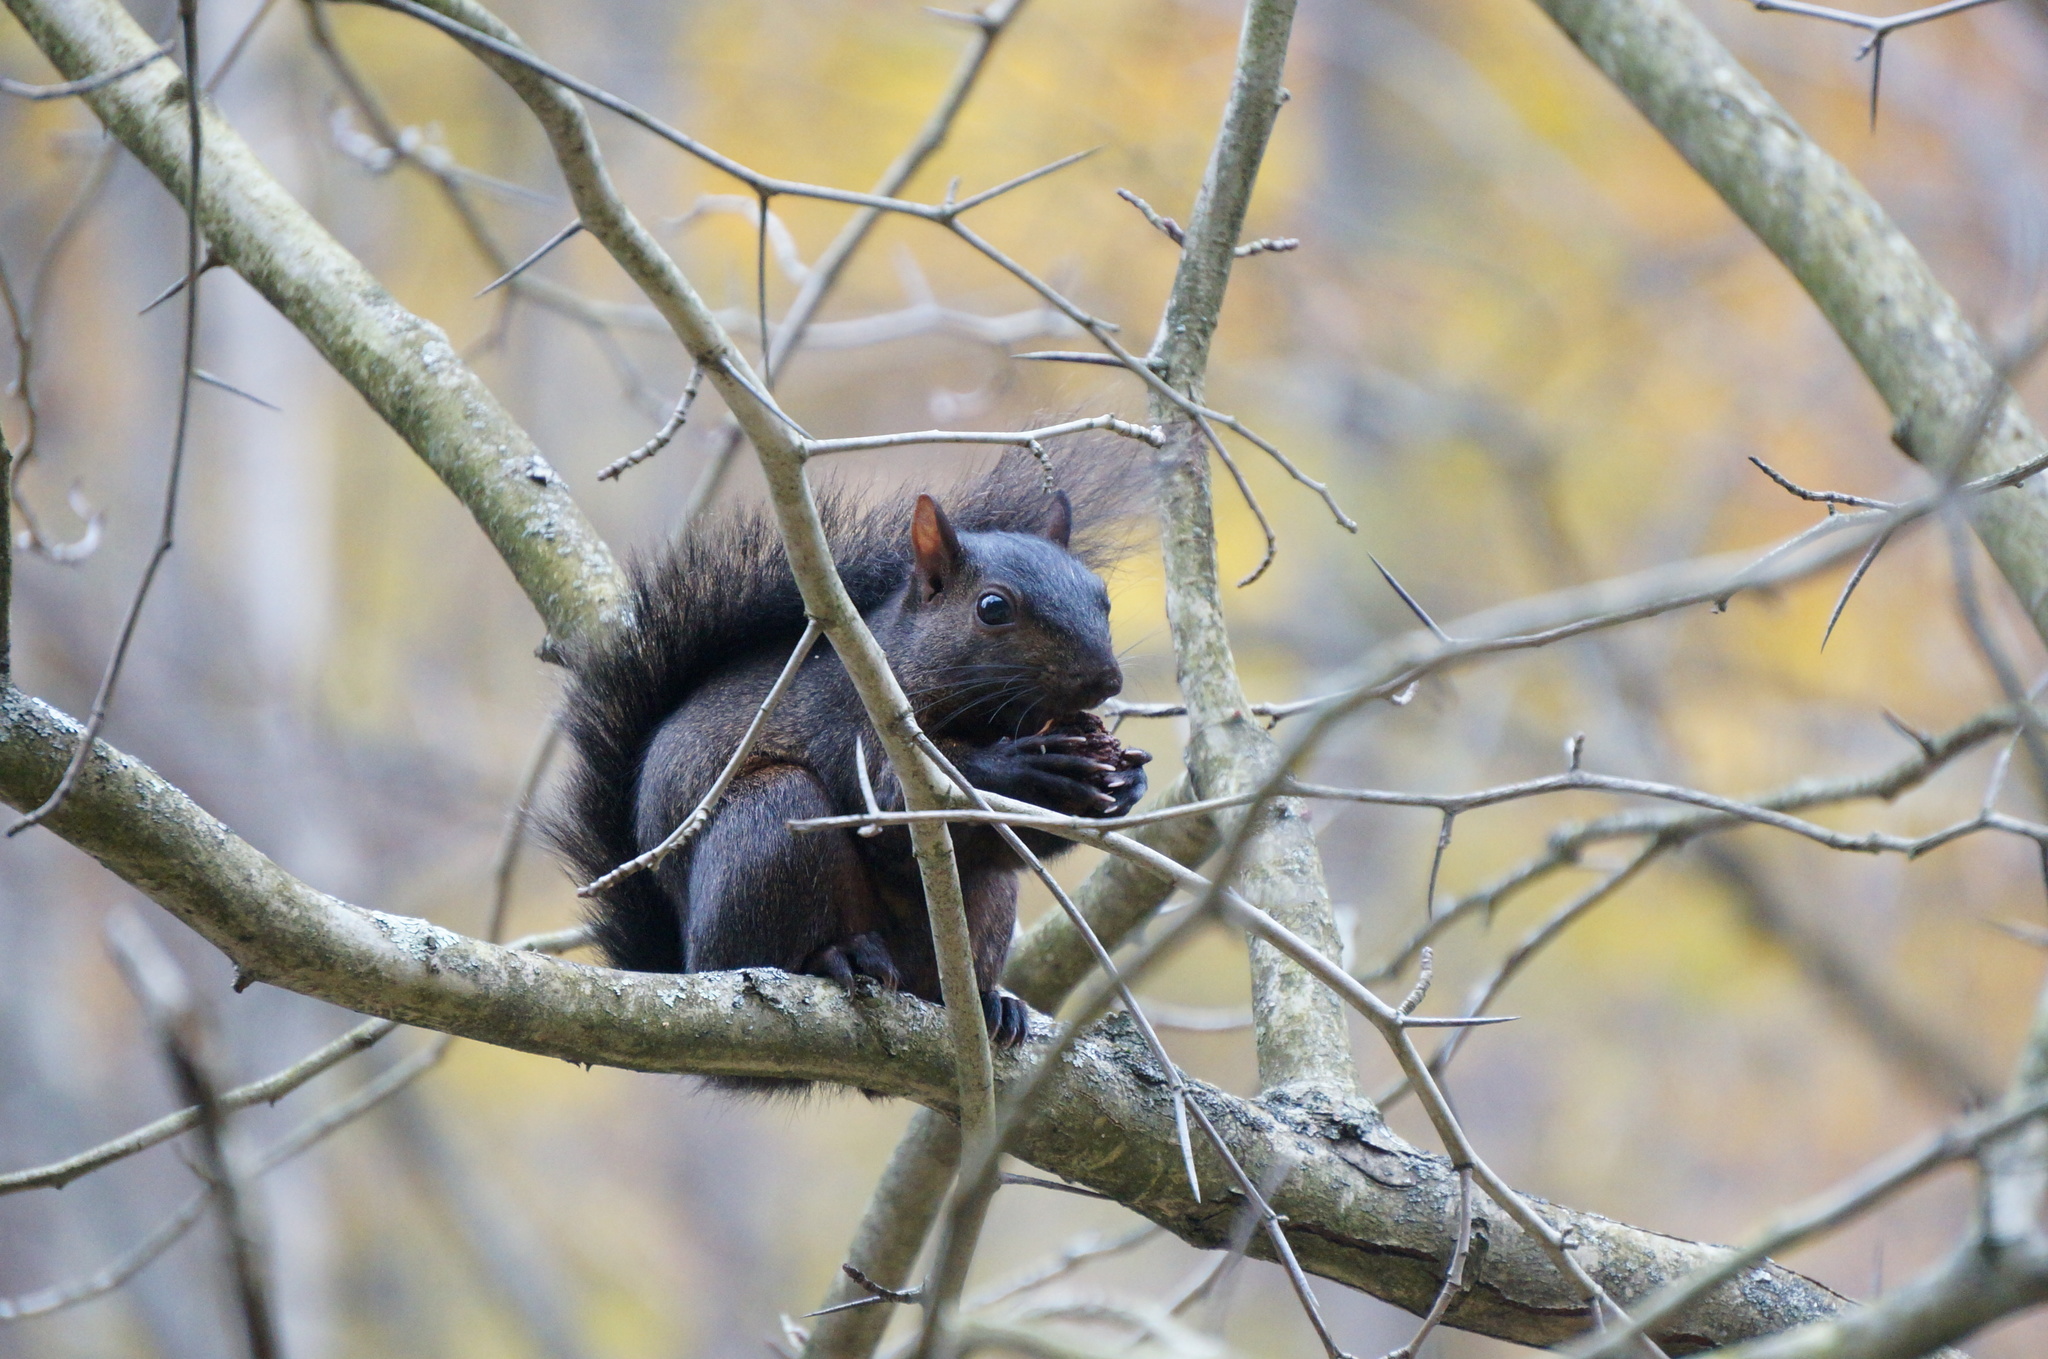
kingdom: Animalia
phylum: Chordata
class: Mammalia
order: Rodentia
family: Sciuridae
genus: Sciurus
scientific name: Sciurus carolinensis
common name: Eastern gray squirrel
